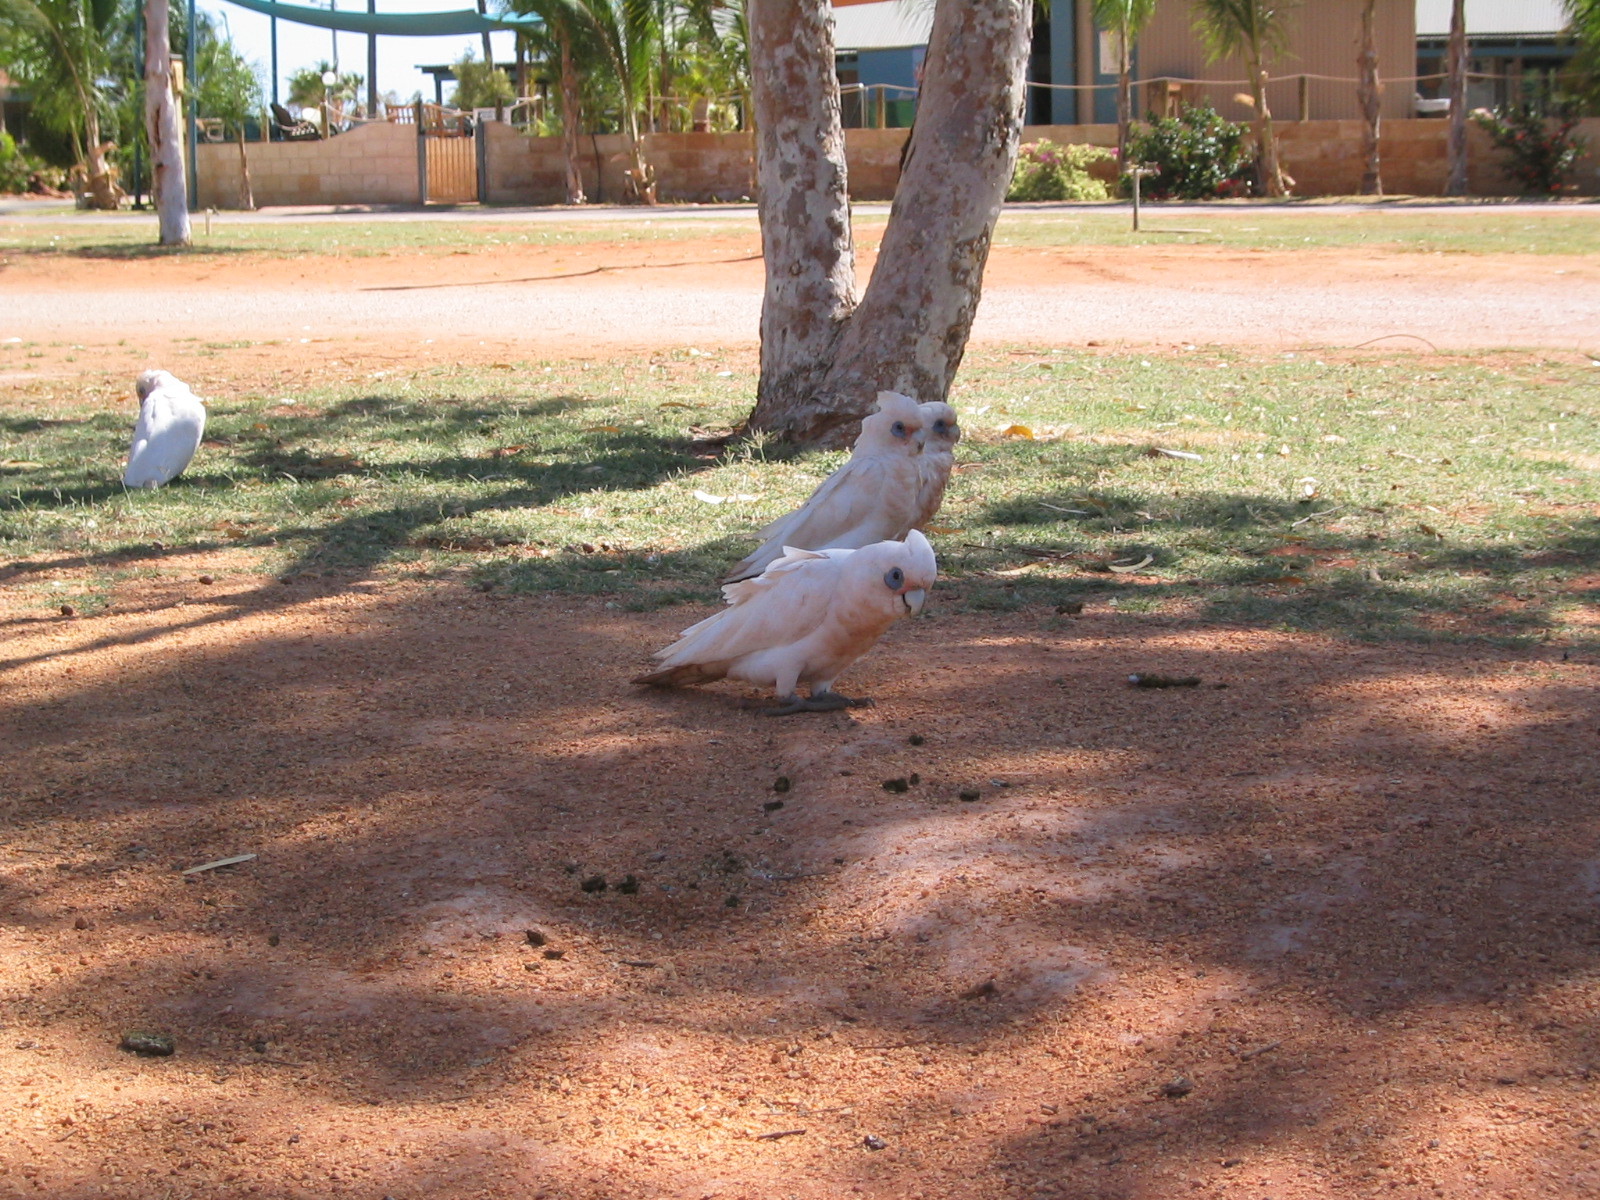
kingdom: Animalia
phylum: Chordata
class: Aves
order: Psittaciformes
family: Psittacidae
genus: Cacatua
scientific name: Cacatua sanguinea
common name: Little corella
